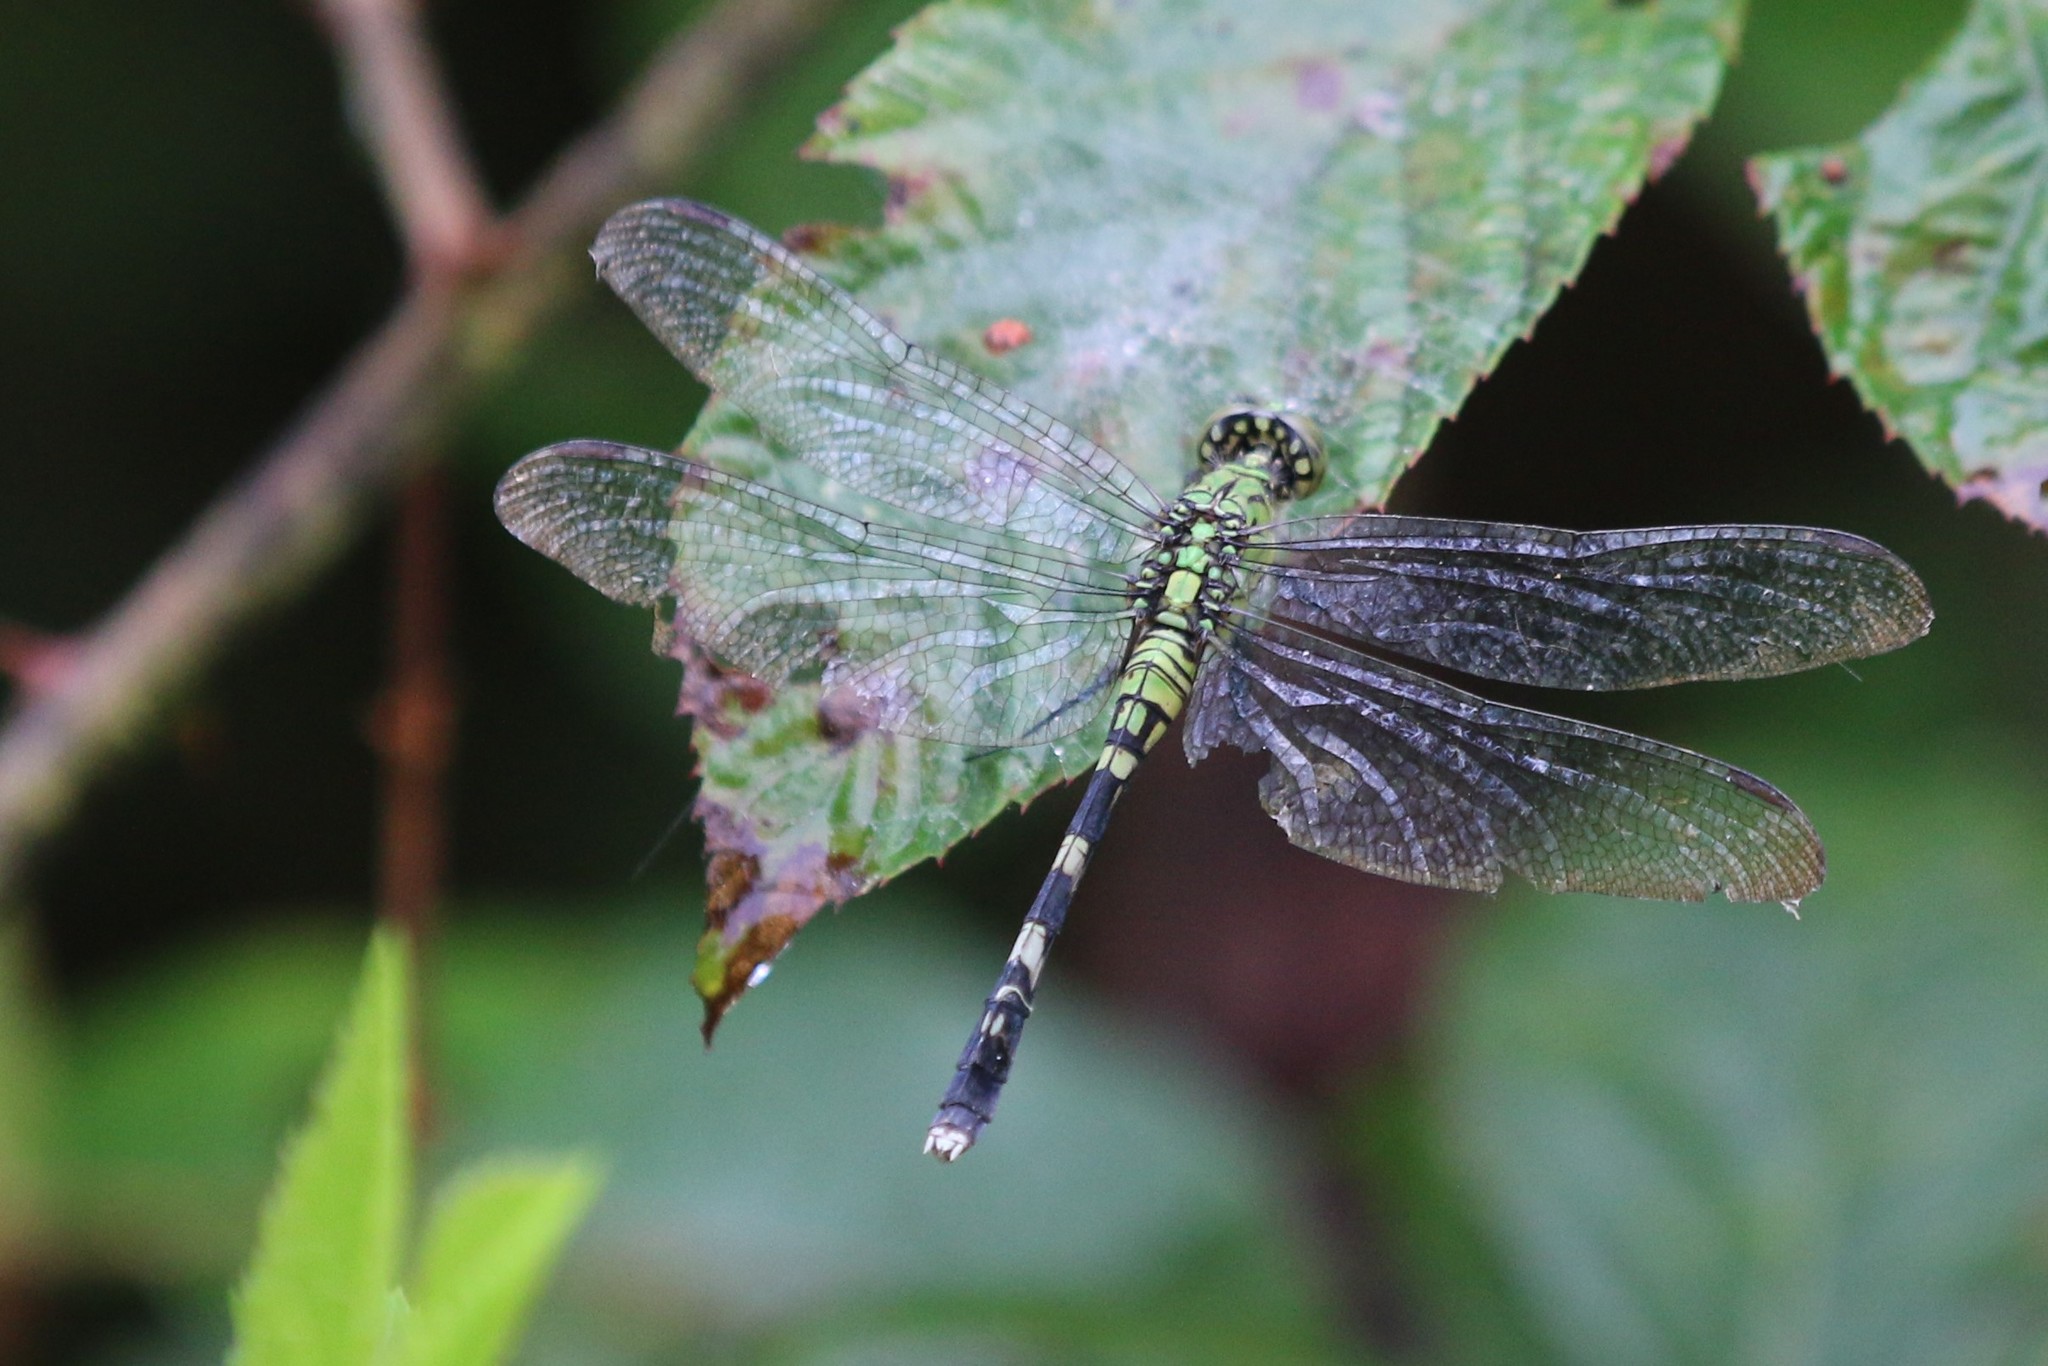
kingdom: Animalia
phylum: Arthropoda
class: Insecta
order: Odonata
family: Libellulidae
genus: Erythemis
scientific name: Erythemis simplicicollis
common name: Eastern pondhawk
